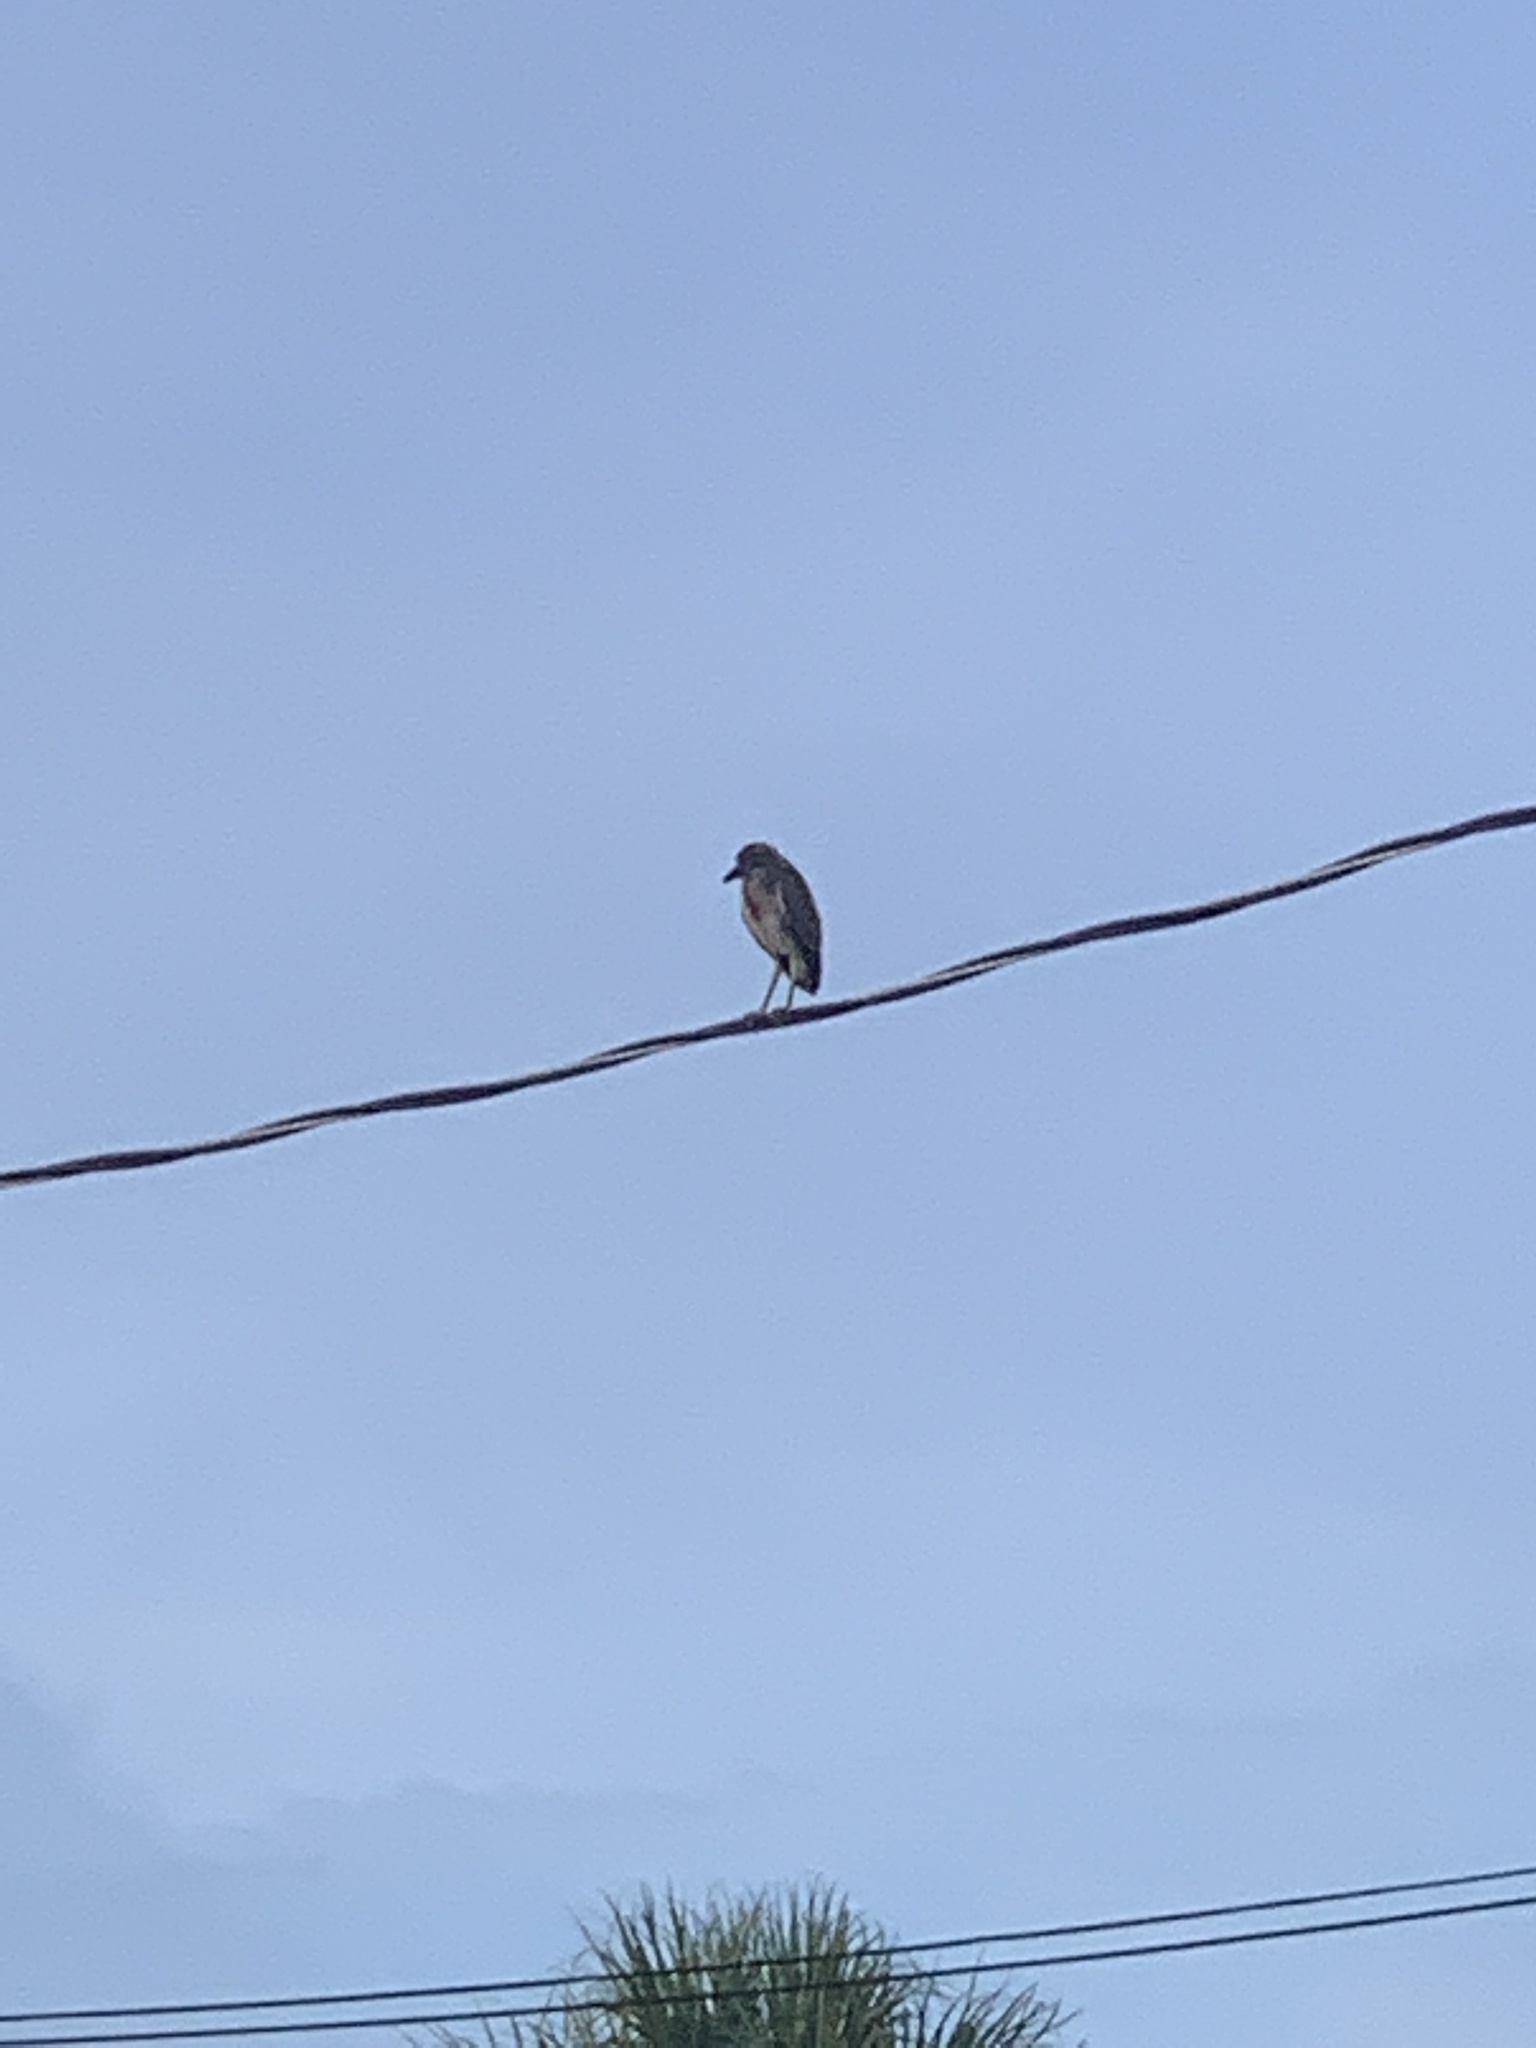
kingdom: Animalia
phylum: Chordata
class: Aves
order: Pelecaniformes
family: Ardeidae
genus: Nycticorax
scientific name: Nycticorax nycticorax
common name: Black-crowned night heron
